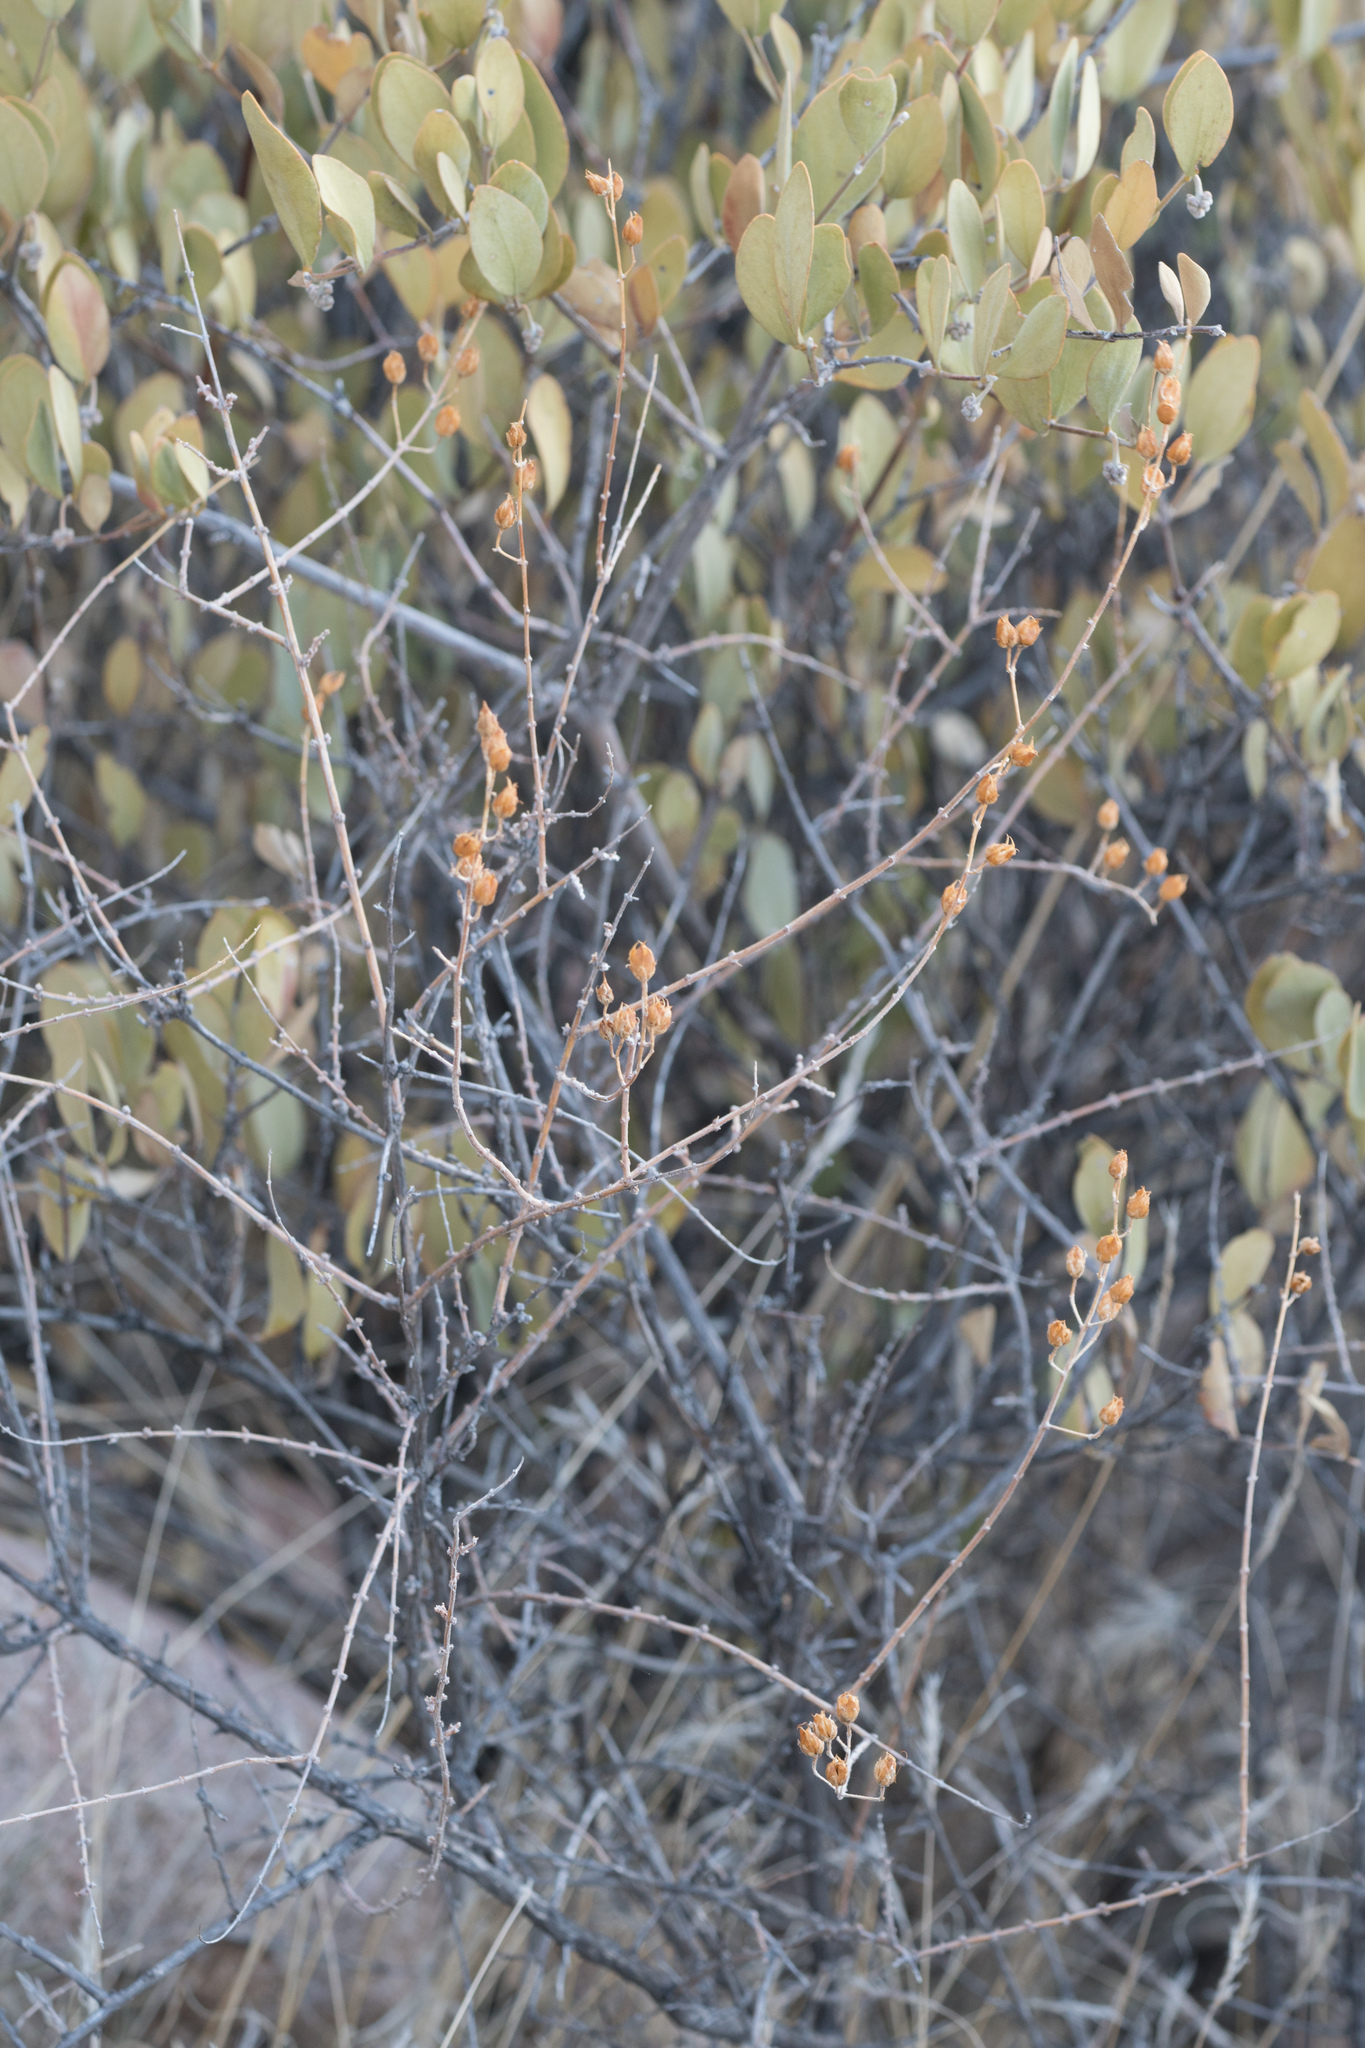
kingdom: Plantae
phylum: Tracheophyta
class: Magnoliopsida
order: Lamiales
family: Plantaginaceae
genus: Keckiella
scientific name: Keckiella antirrhinoides
